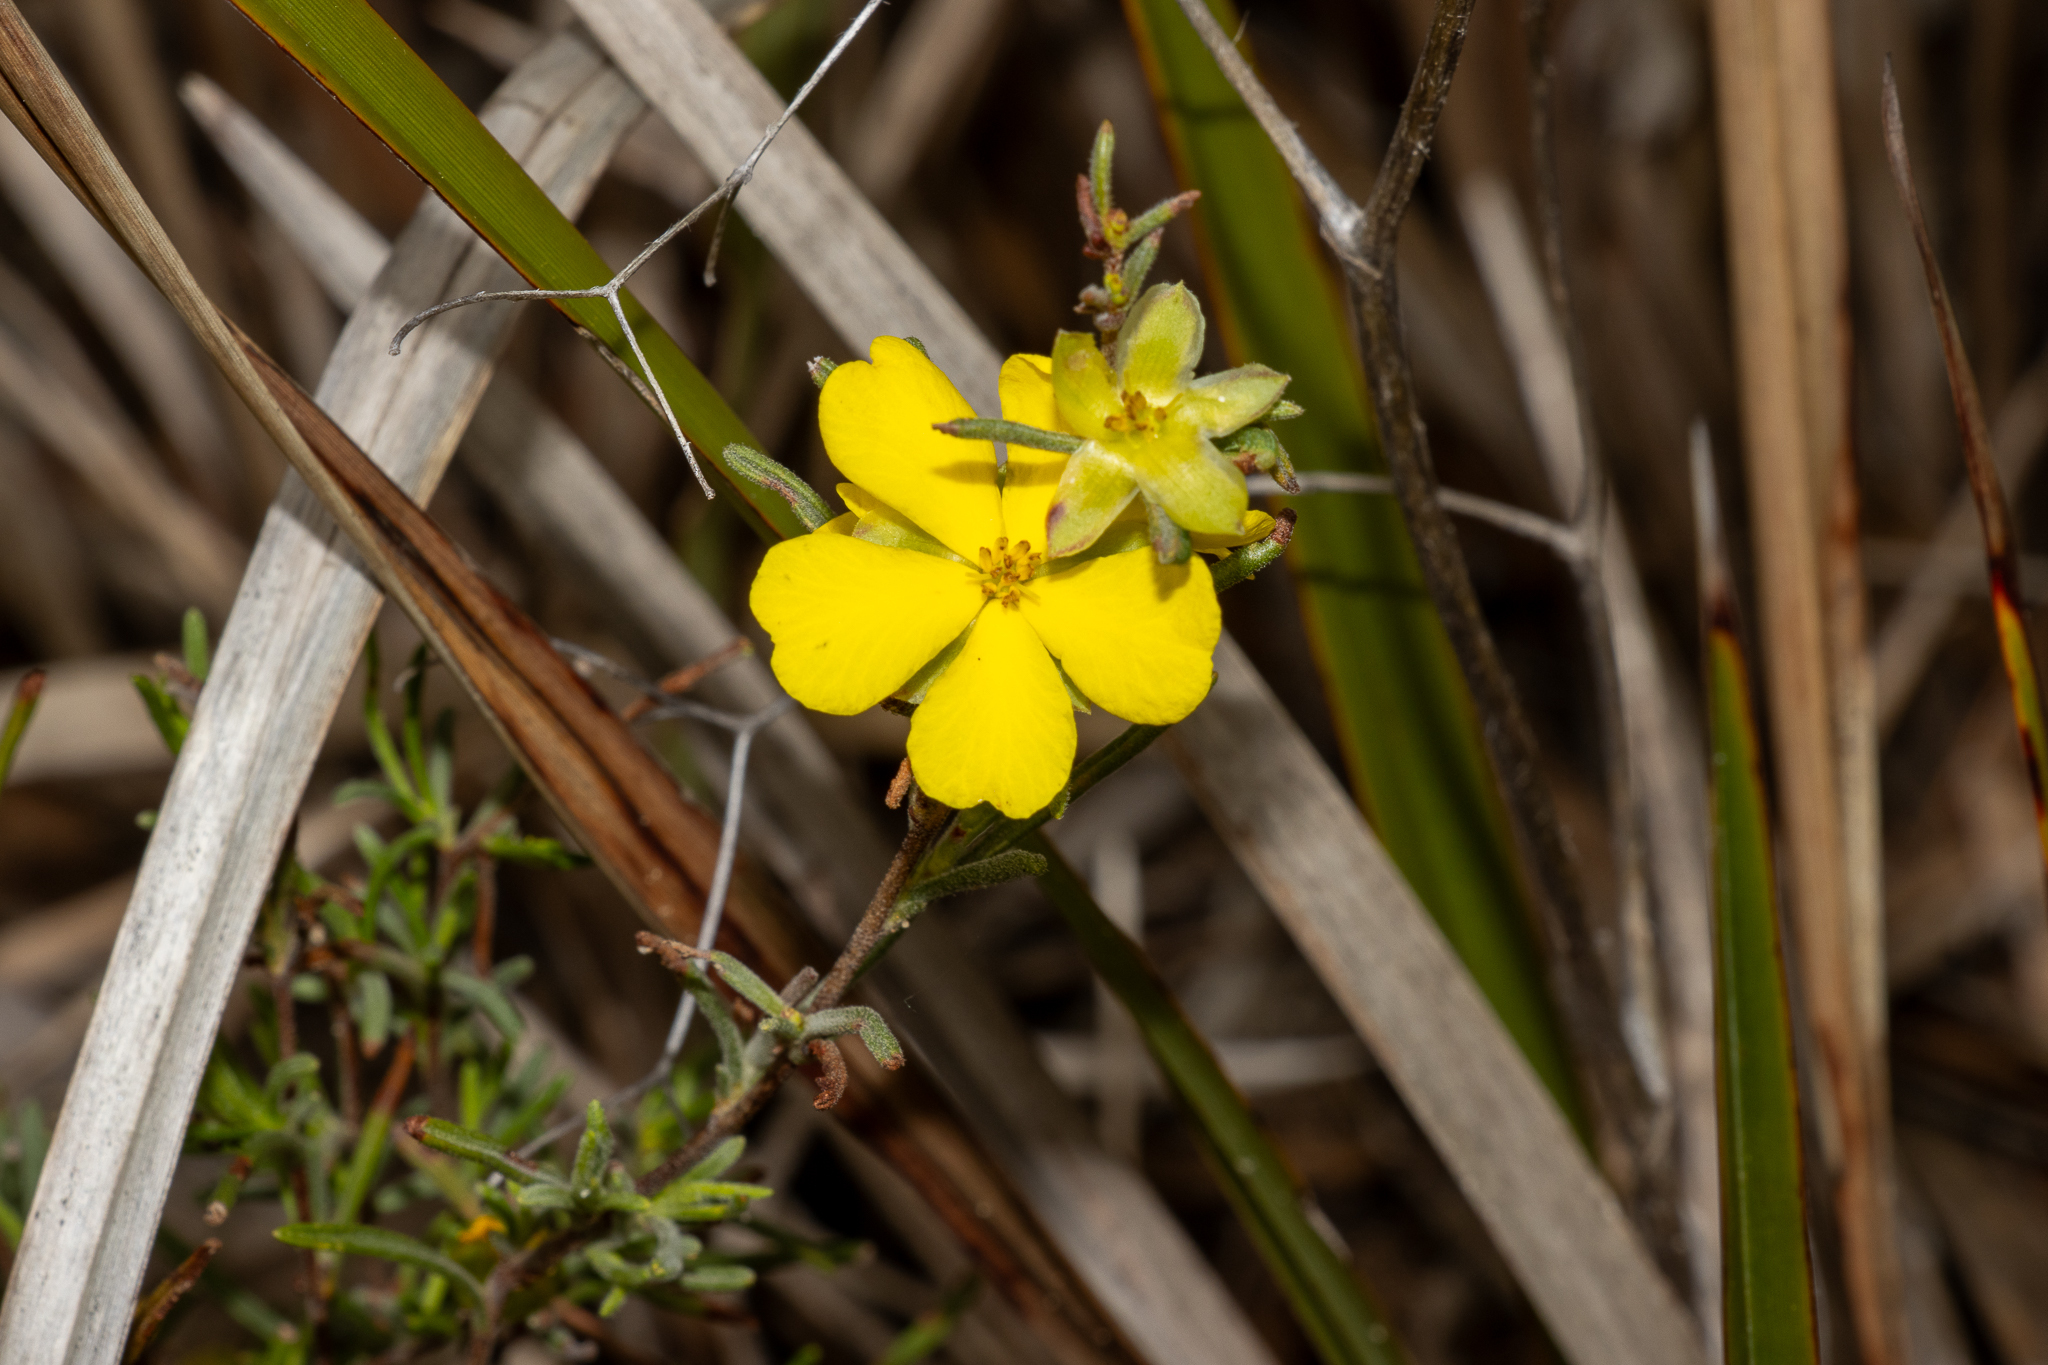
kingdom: Plantae
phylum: Tracheophyta
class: Magnoliopsida
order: Dilleniales
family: Dilleniaceae
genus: Hibbertia
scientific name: Hibbertia virgata
